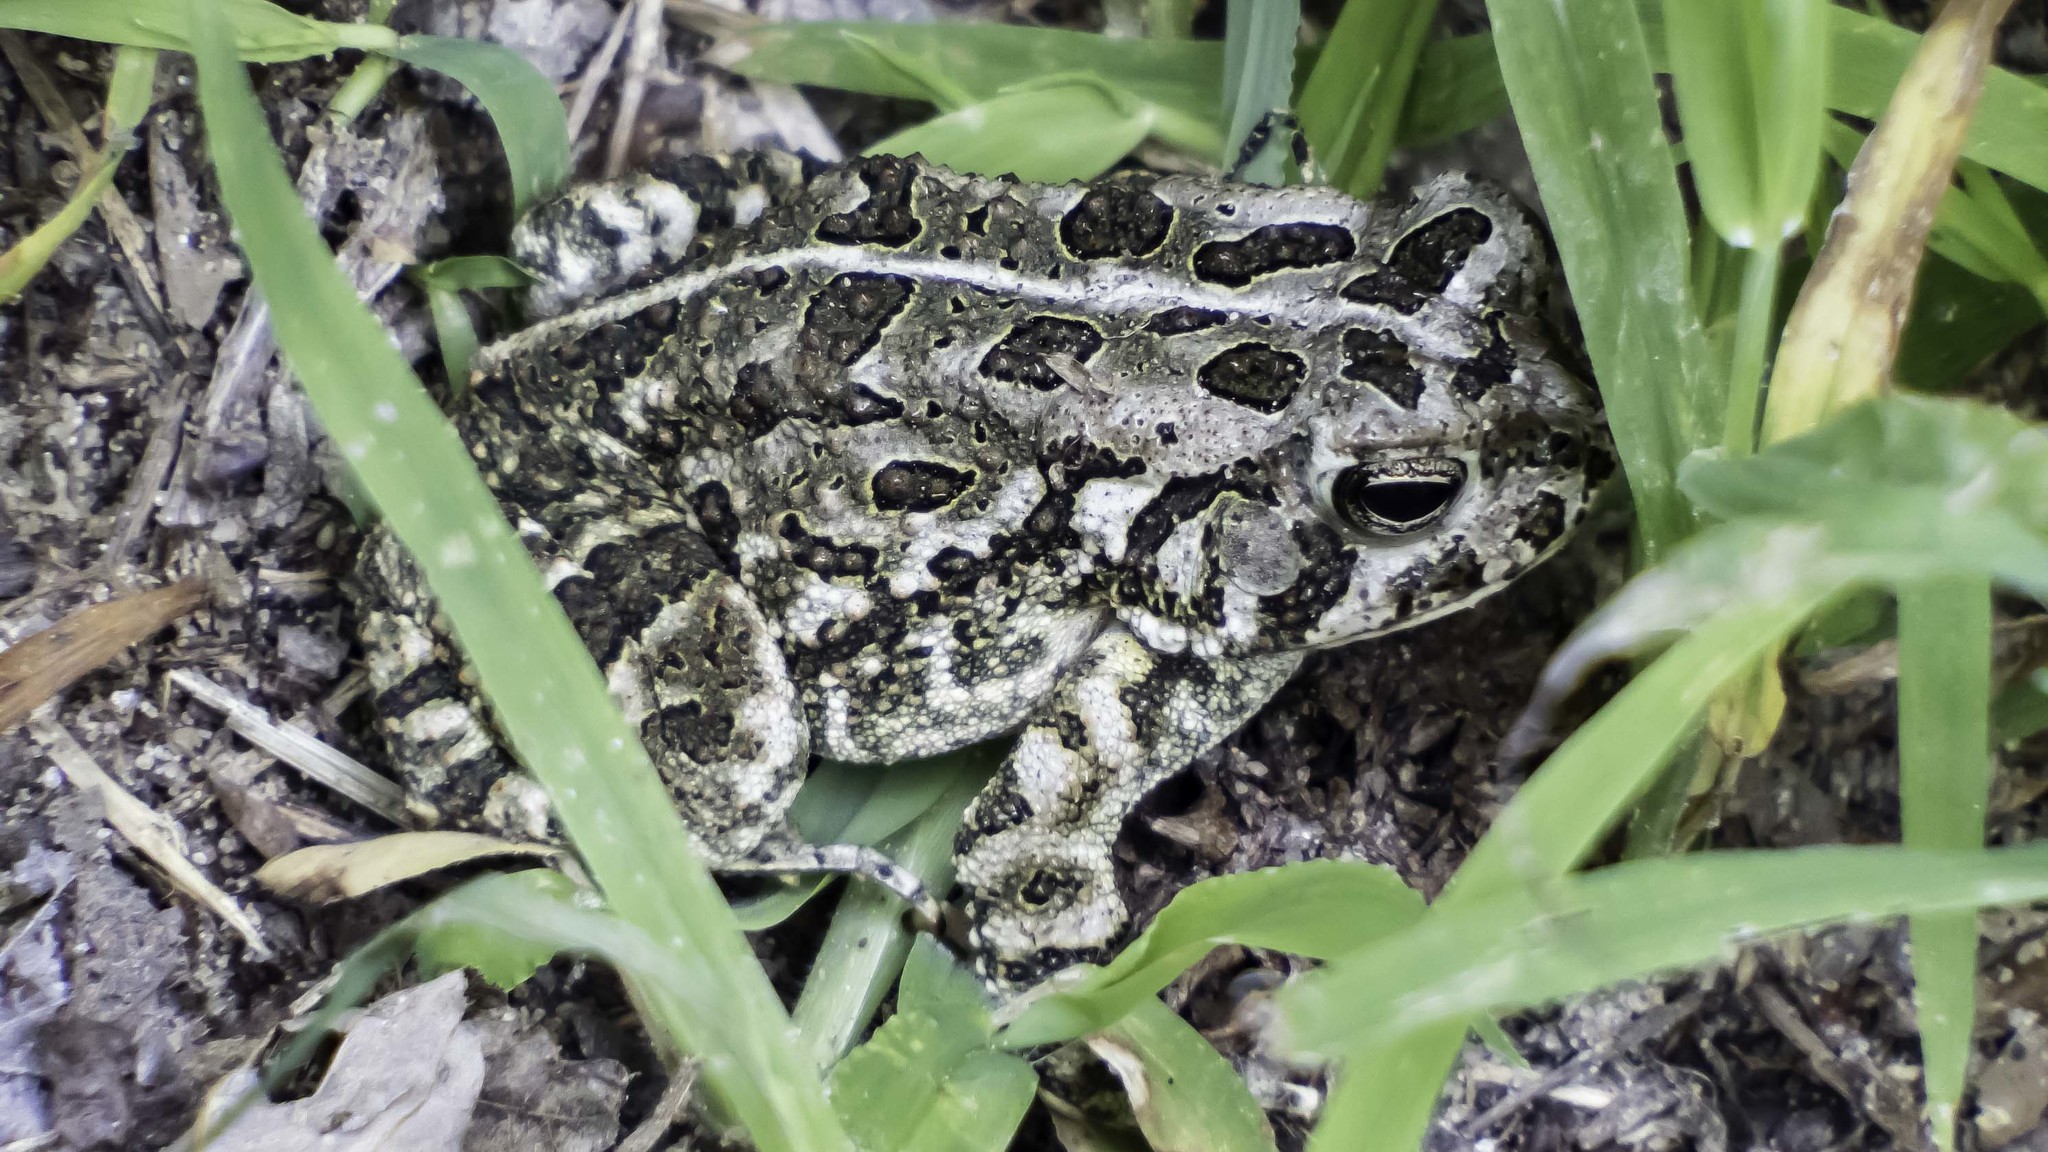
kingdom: Animalia
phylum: Chordata
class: Amphibia
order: Anura
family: Bufonidae
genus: Anaxyrus
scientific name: Anaxyrus fowleri
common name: Fowler's toad
